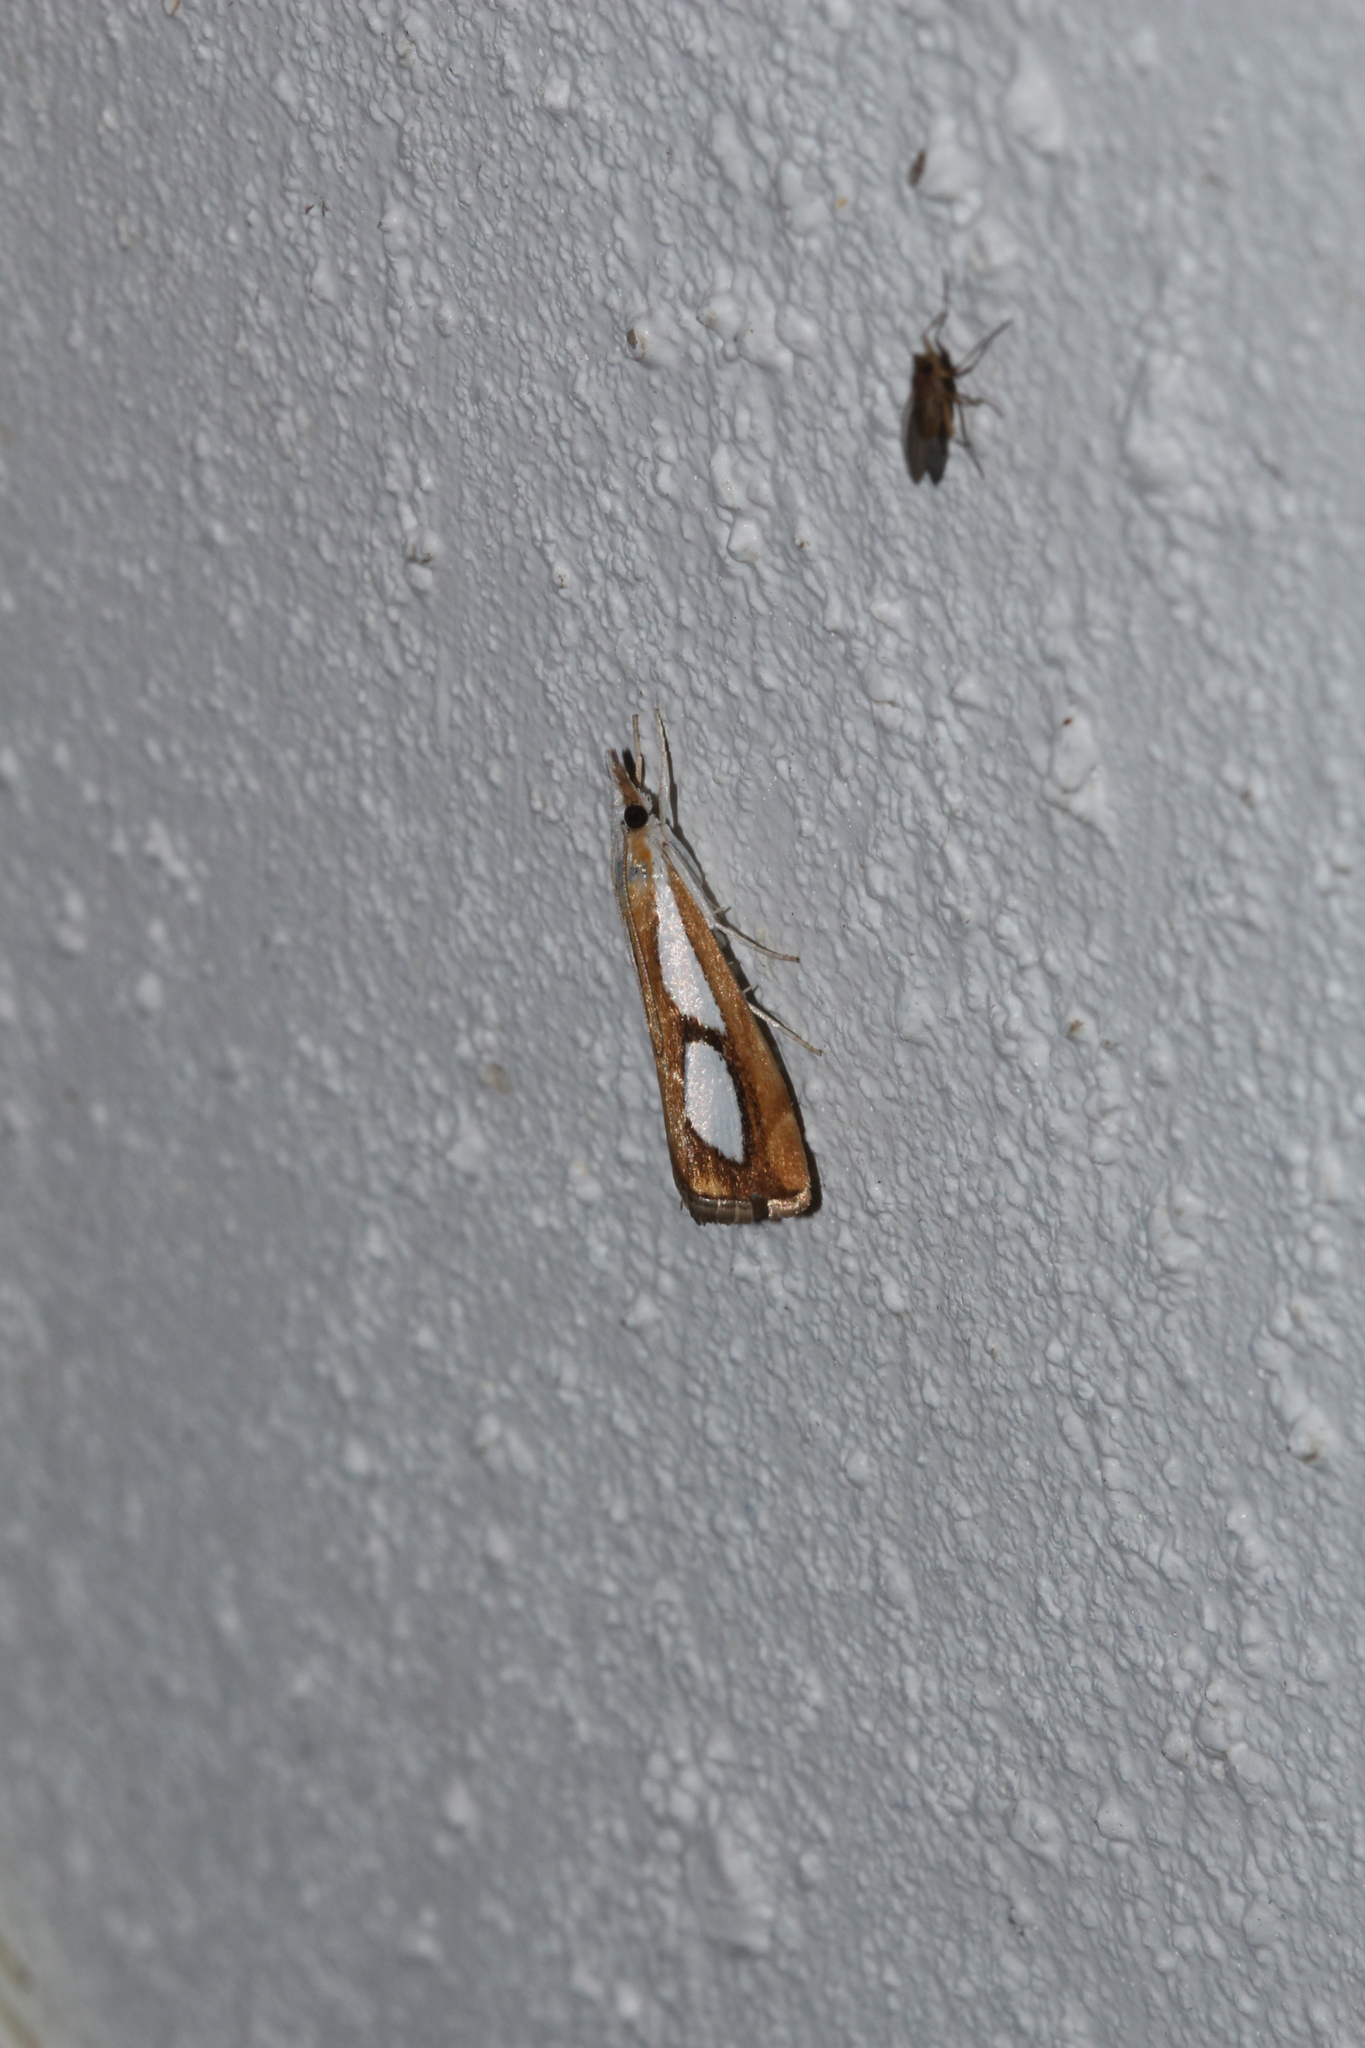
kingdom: Animalia
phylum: Arthropoda
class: Insecta
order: Lepidoptera
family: Crambidae
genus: Catoptria
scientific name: Catoptria pinella
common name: Pearl grass-veneer
